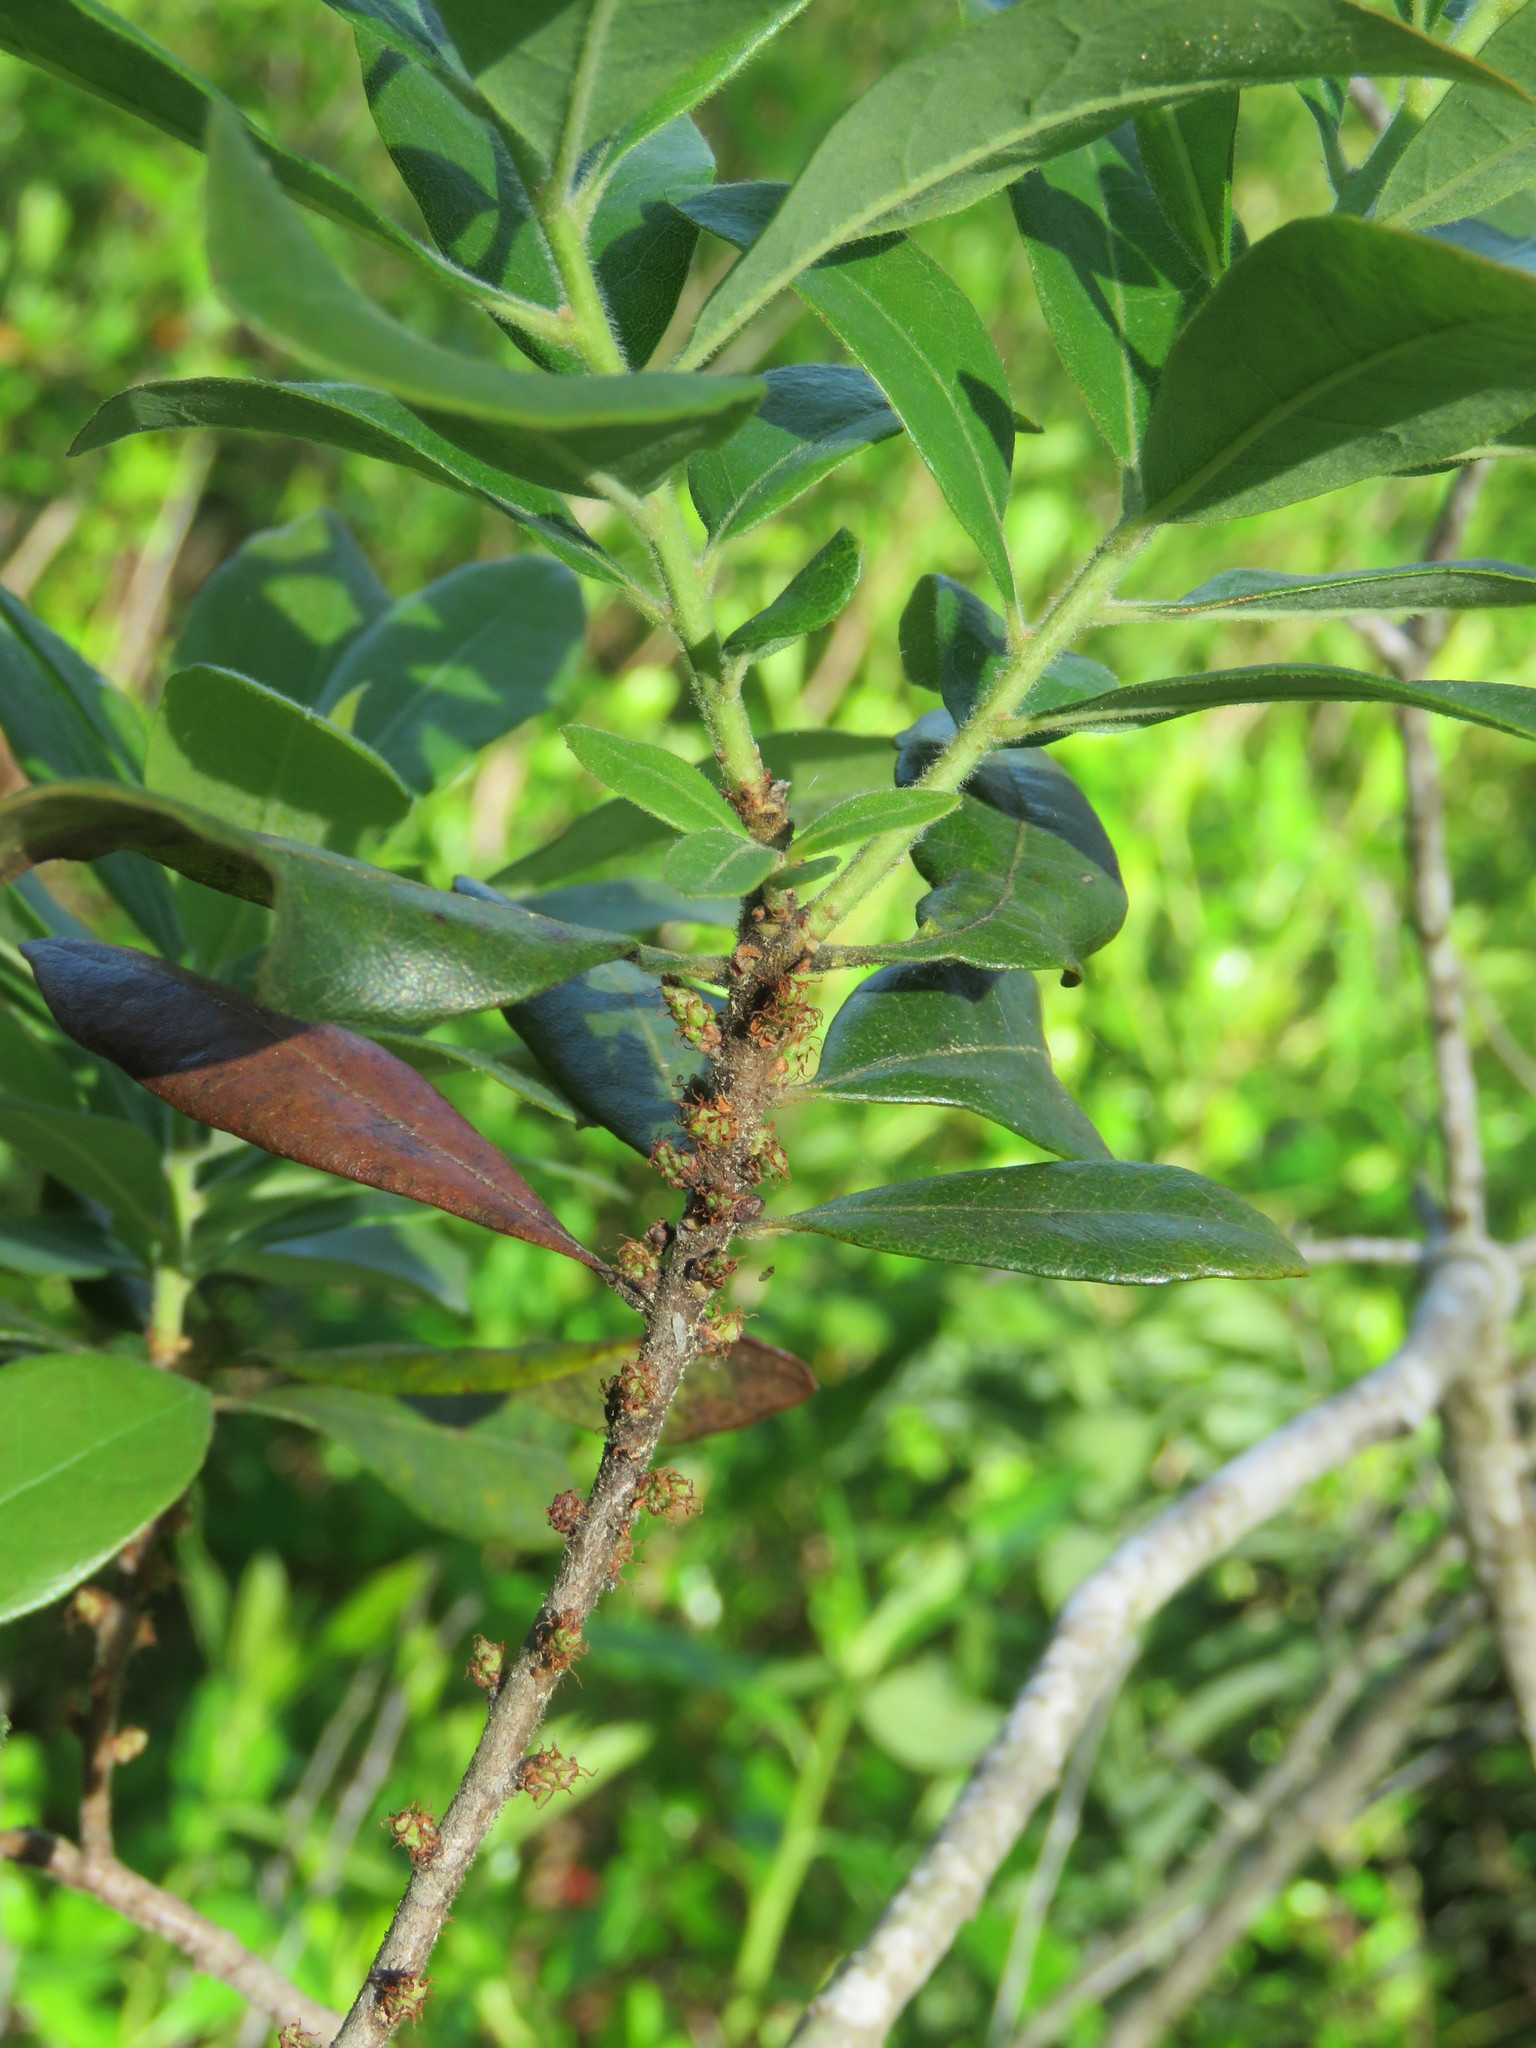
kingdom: Plantae
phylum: Tracheophyta
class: Magnoliopsida
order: Fagales
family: Myricaceae
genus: Morella
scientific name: Morella caroliniensis
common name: Evergreen bayberry
